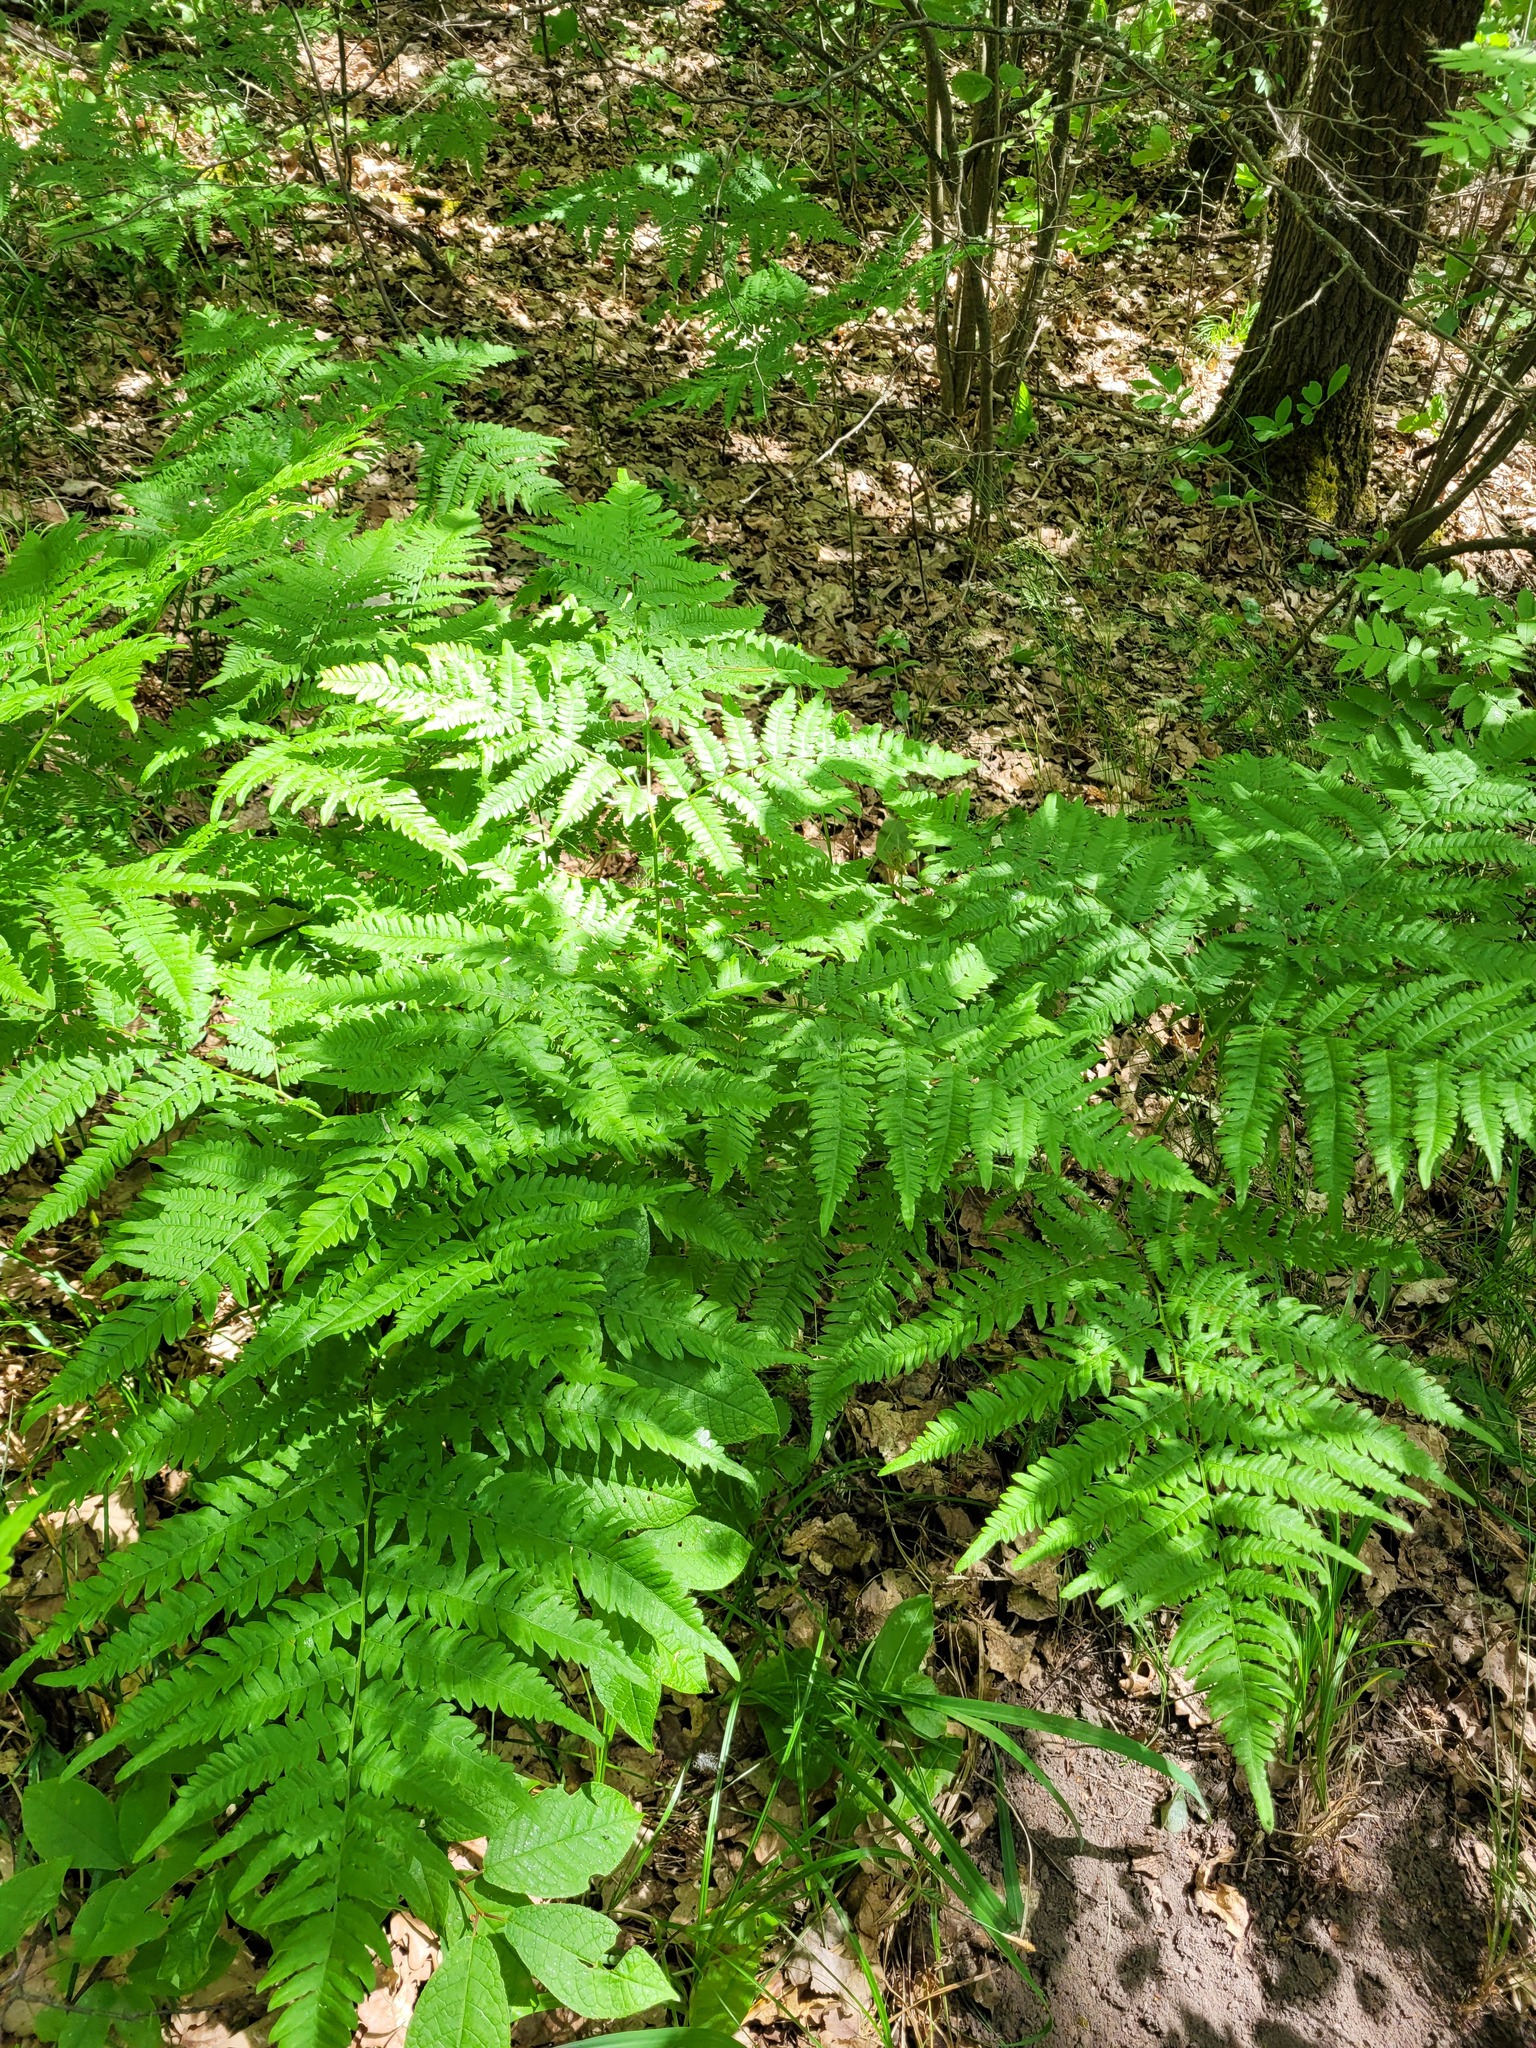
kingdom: Plantae
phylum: Tracheophyta
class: Polypodiopsida
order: Polypodiales
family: Dennstaedtiaceae
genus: Pteridium
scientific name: Pteridium aquilinum
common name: Bracken
